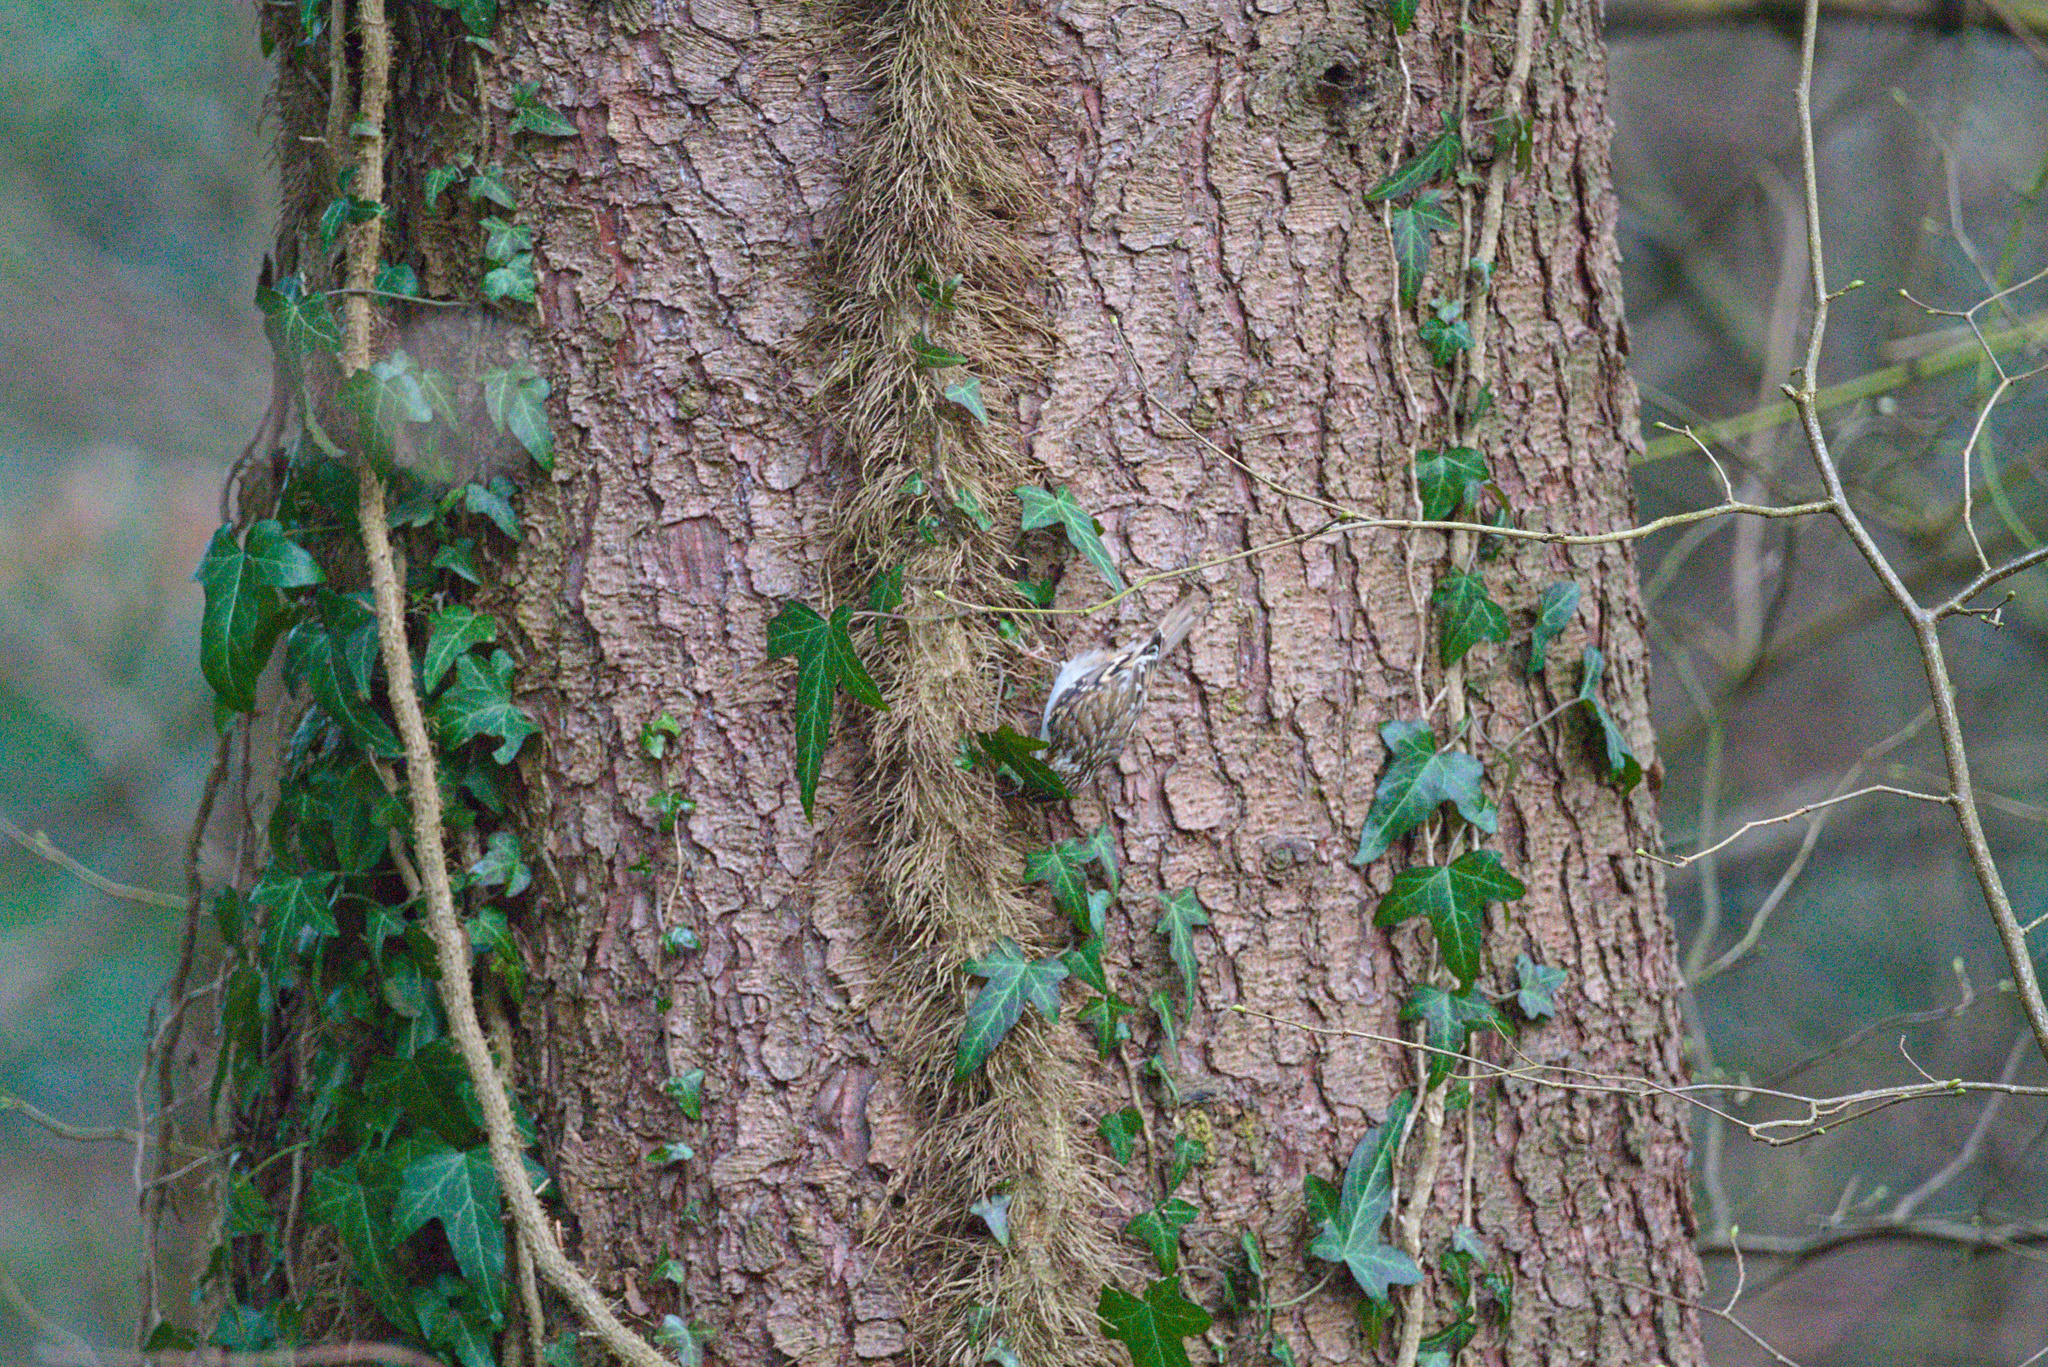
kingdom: Animalia
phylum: Chordata
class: Aves
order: Passeriformes
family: Certhiidae
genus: Certhia
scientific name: Certhia familiaris
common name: Eurasian treecreeper
